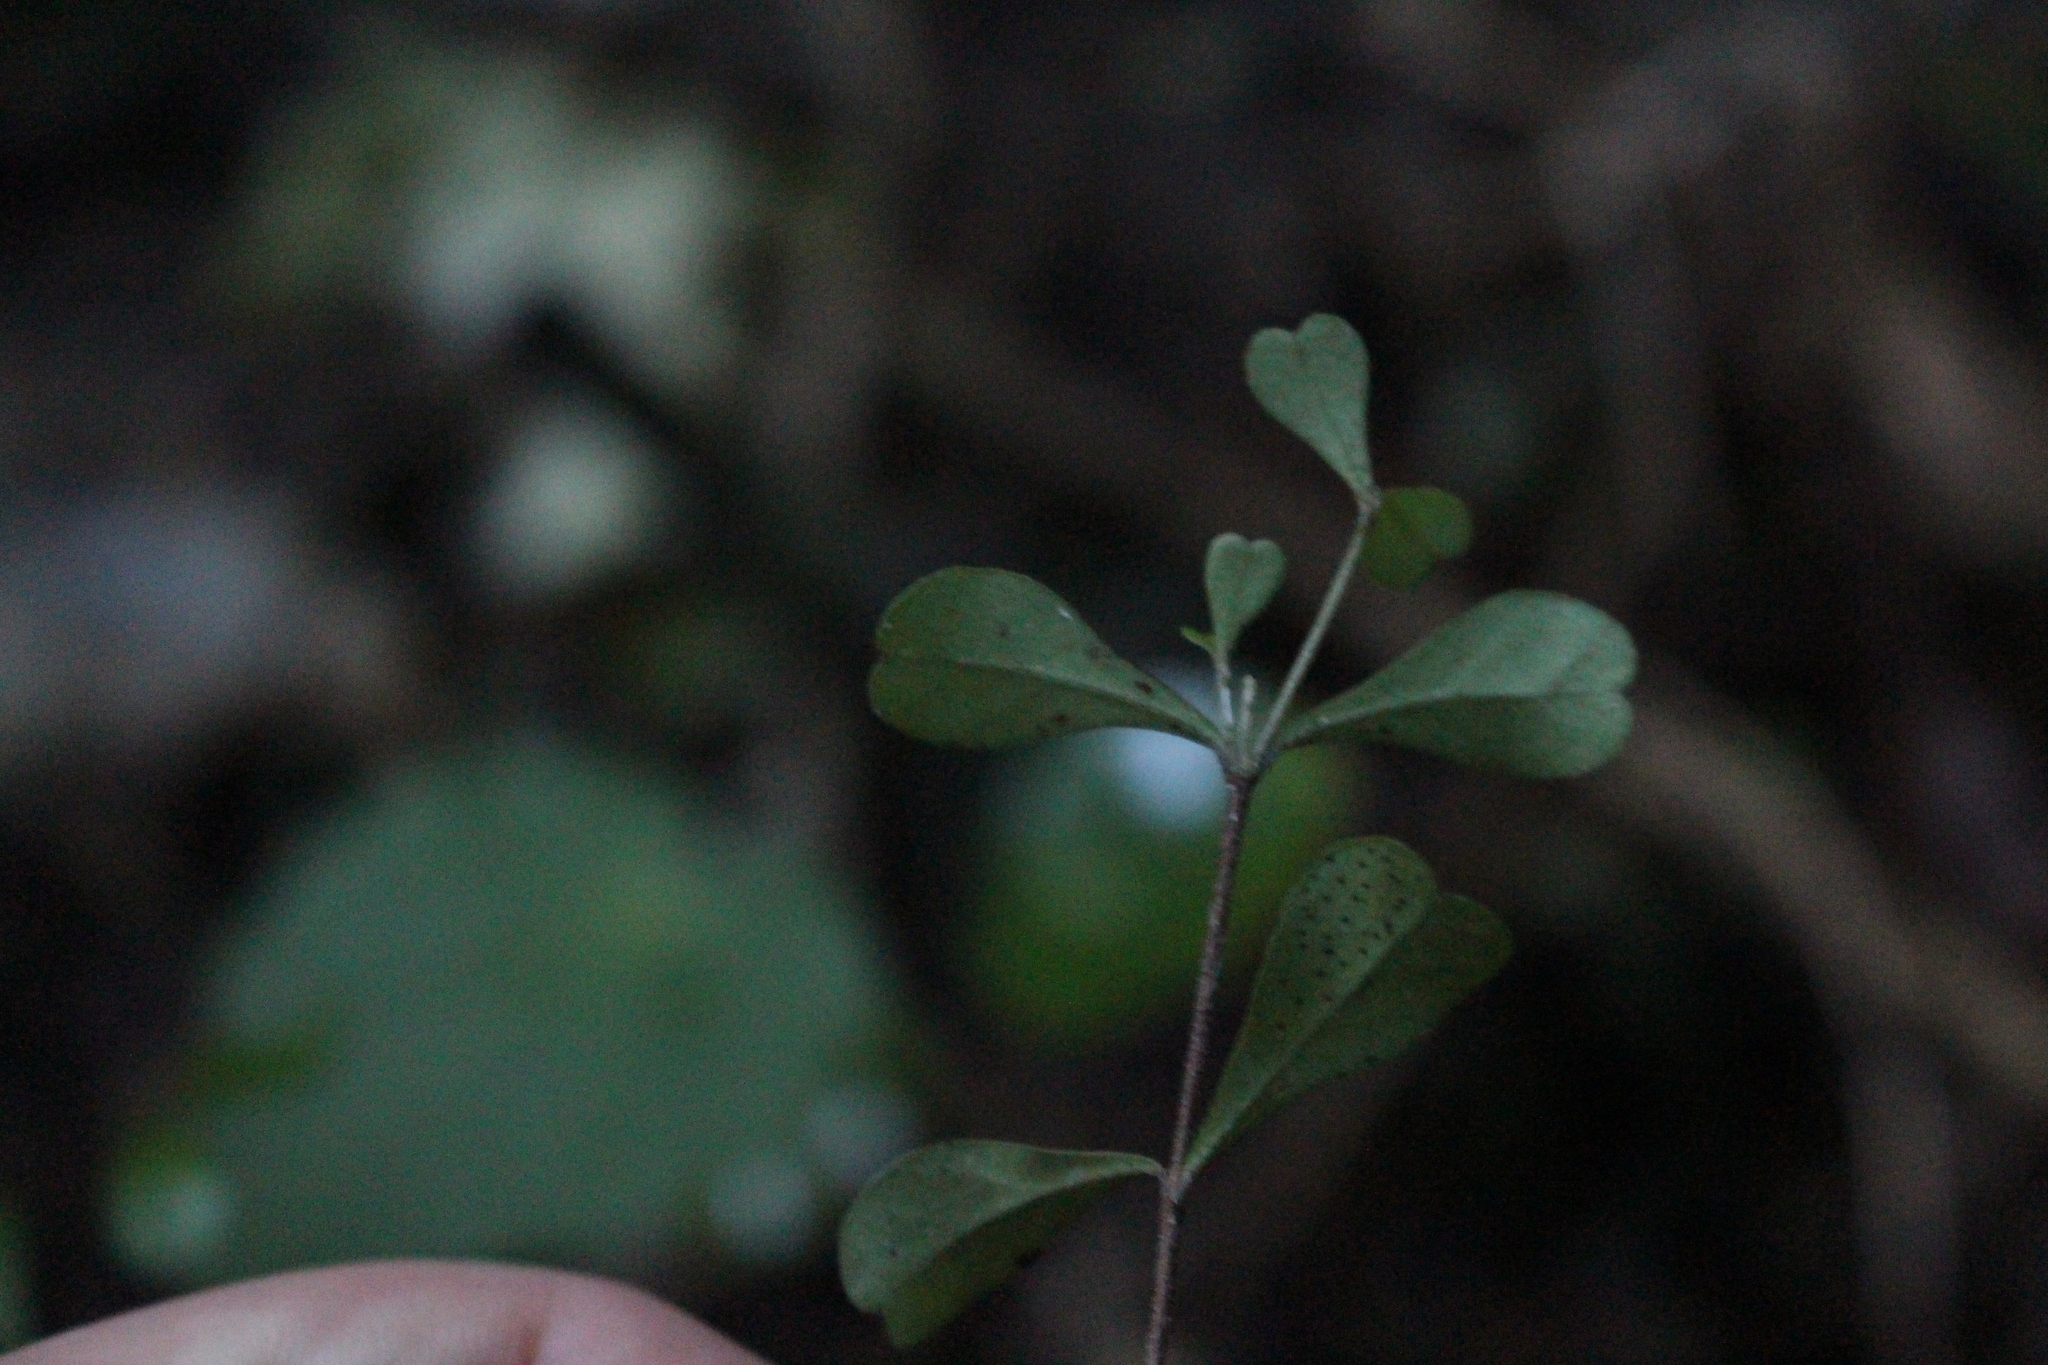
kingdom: Plantae
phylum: Tracheophyta
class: Magnoliopsida
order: Myrtales
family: Myrtaceae
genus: Lophomyrtus
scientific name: Lophomyrtus obcordata
